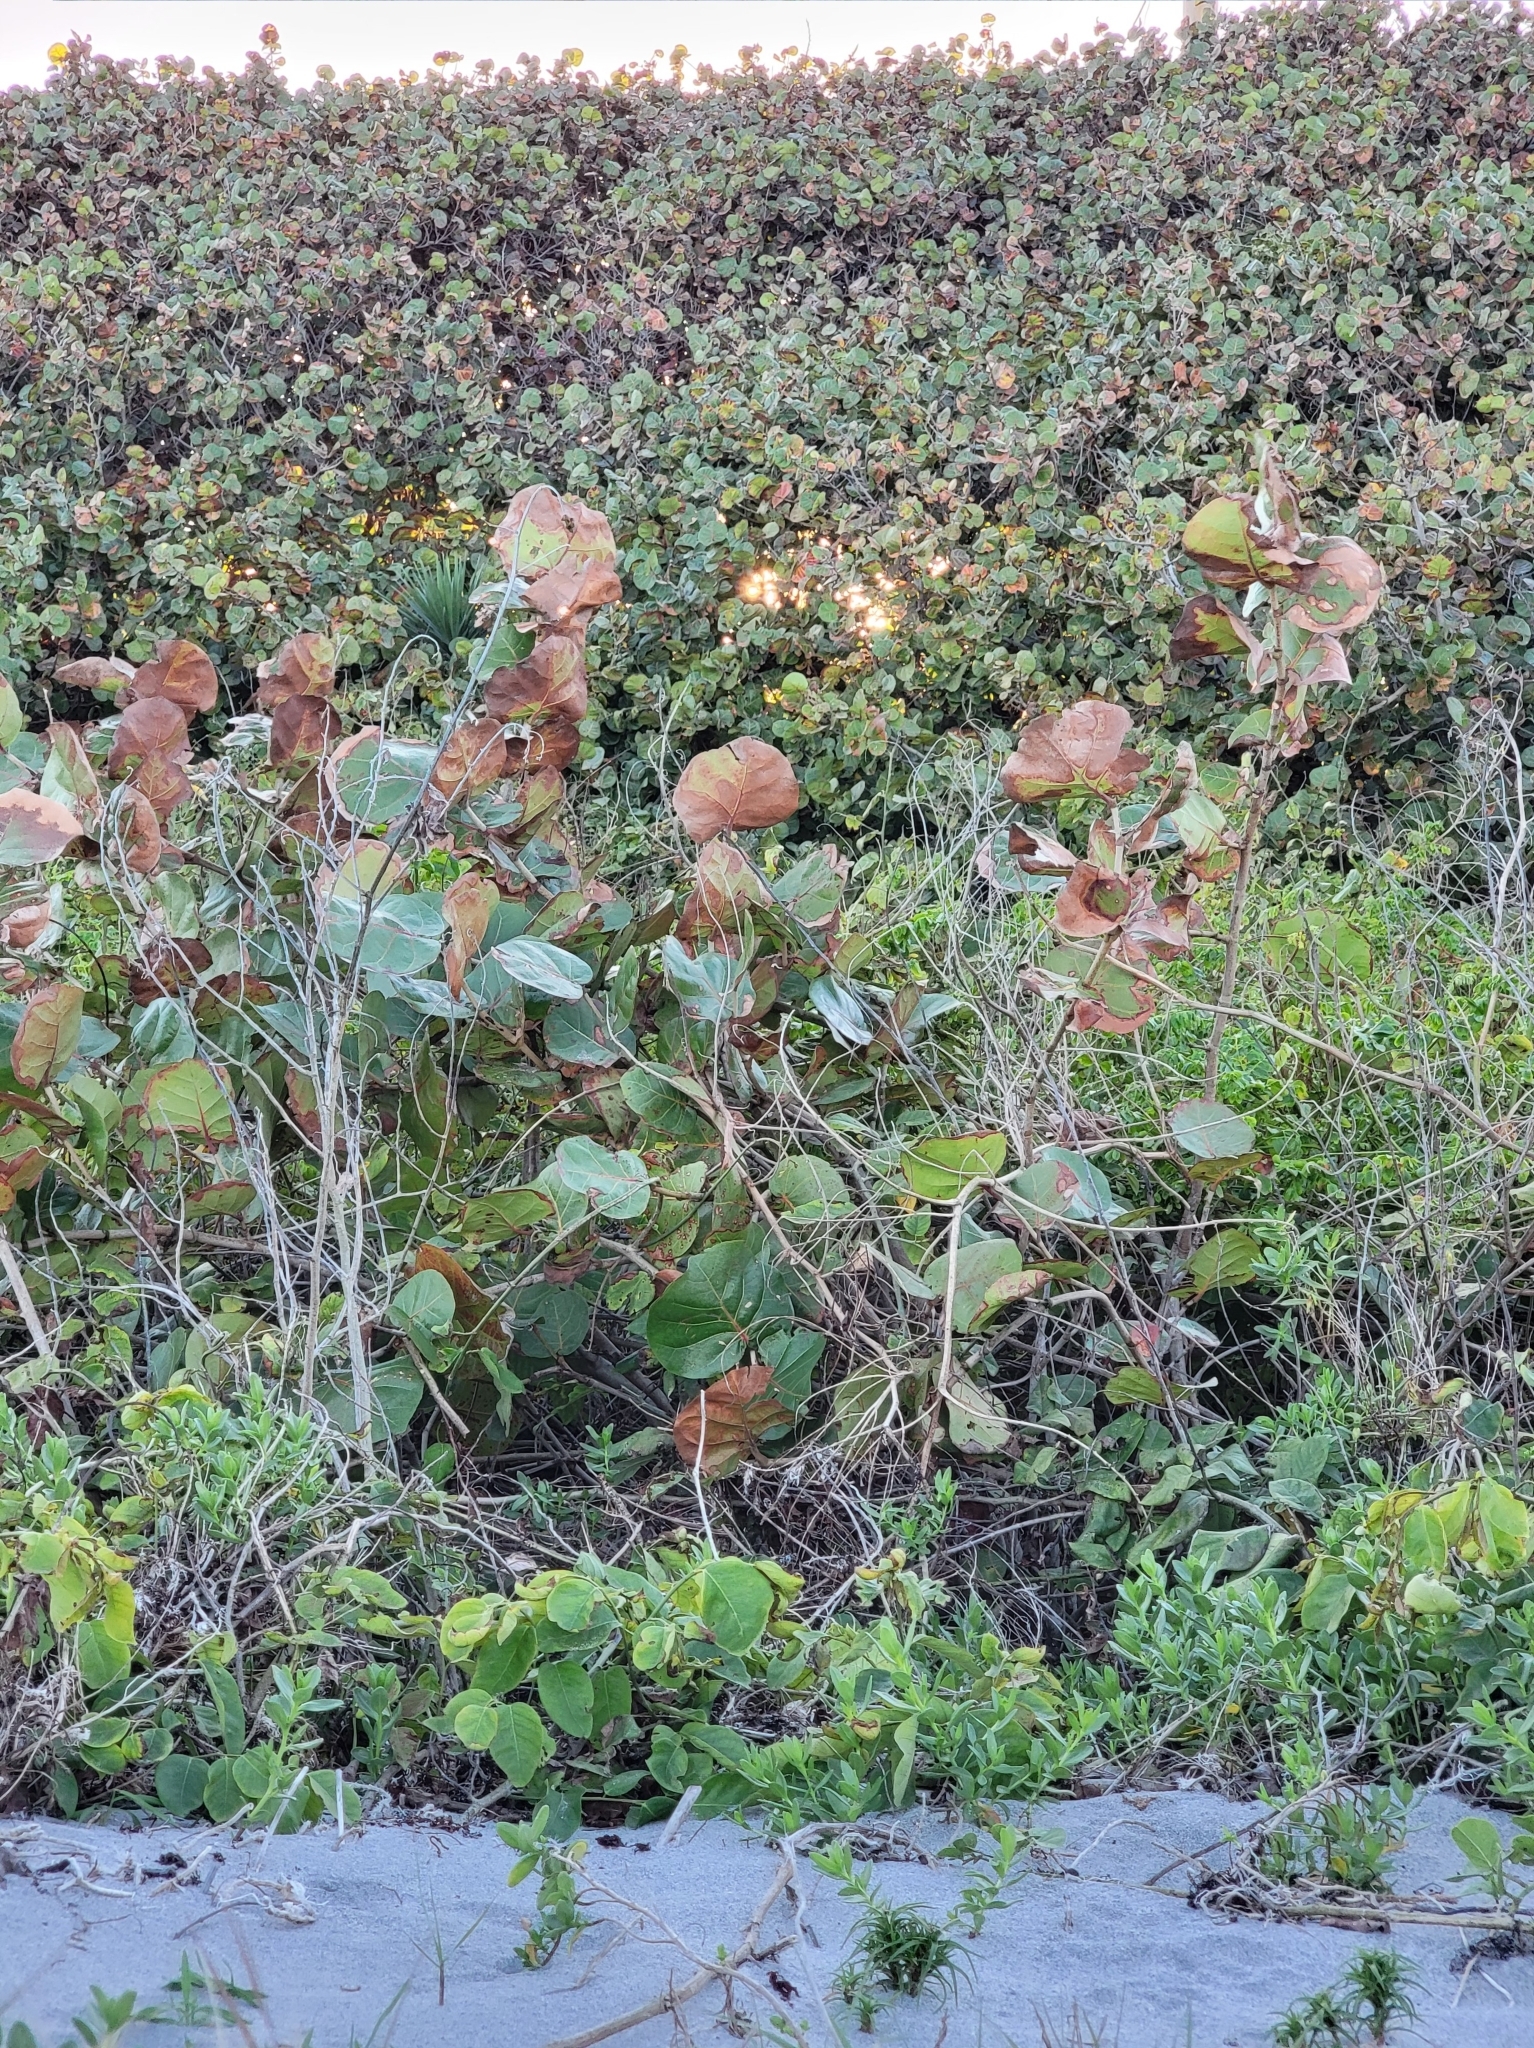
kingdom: Plantae
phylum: Tracheophyta
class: Magnoliopsida
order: Caryophyllales
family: Polygonaceae
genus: Coccoloba
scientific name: Coccoloba uvifera
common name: Seagrape
